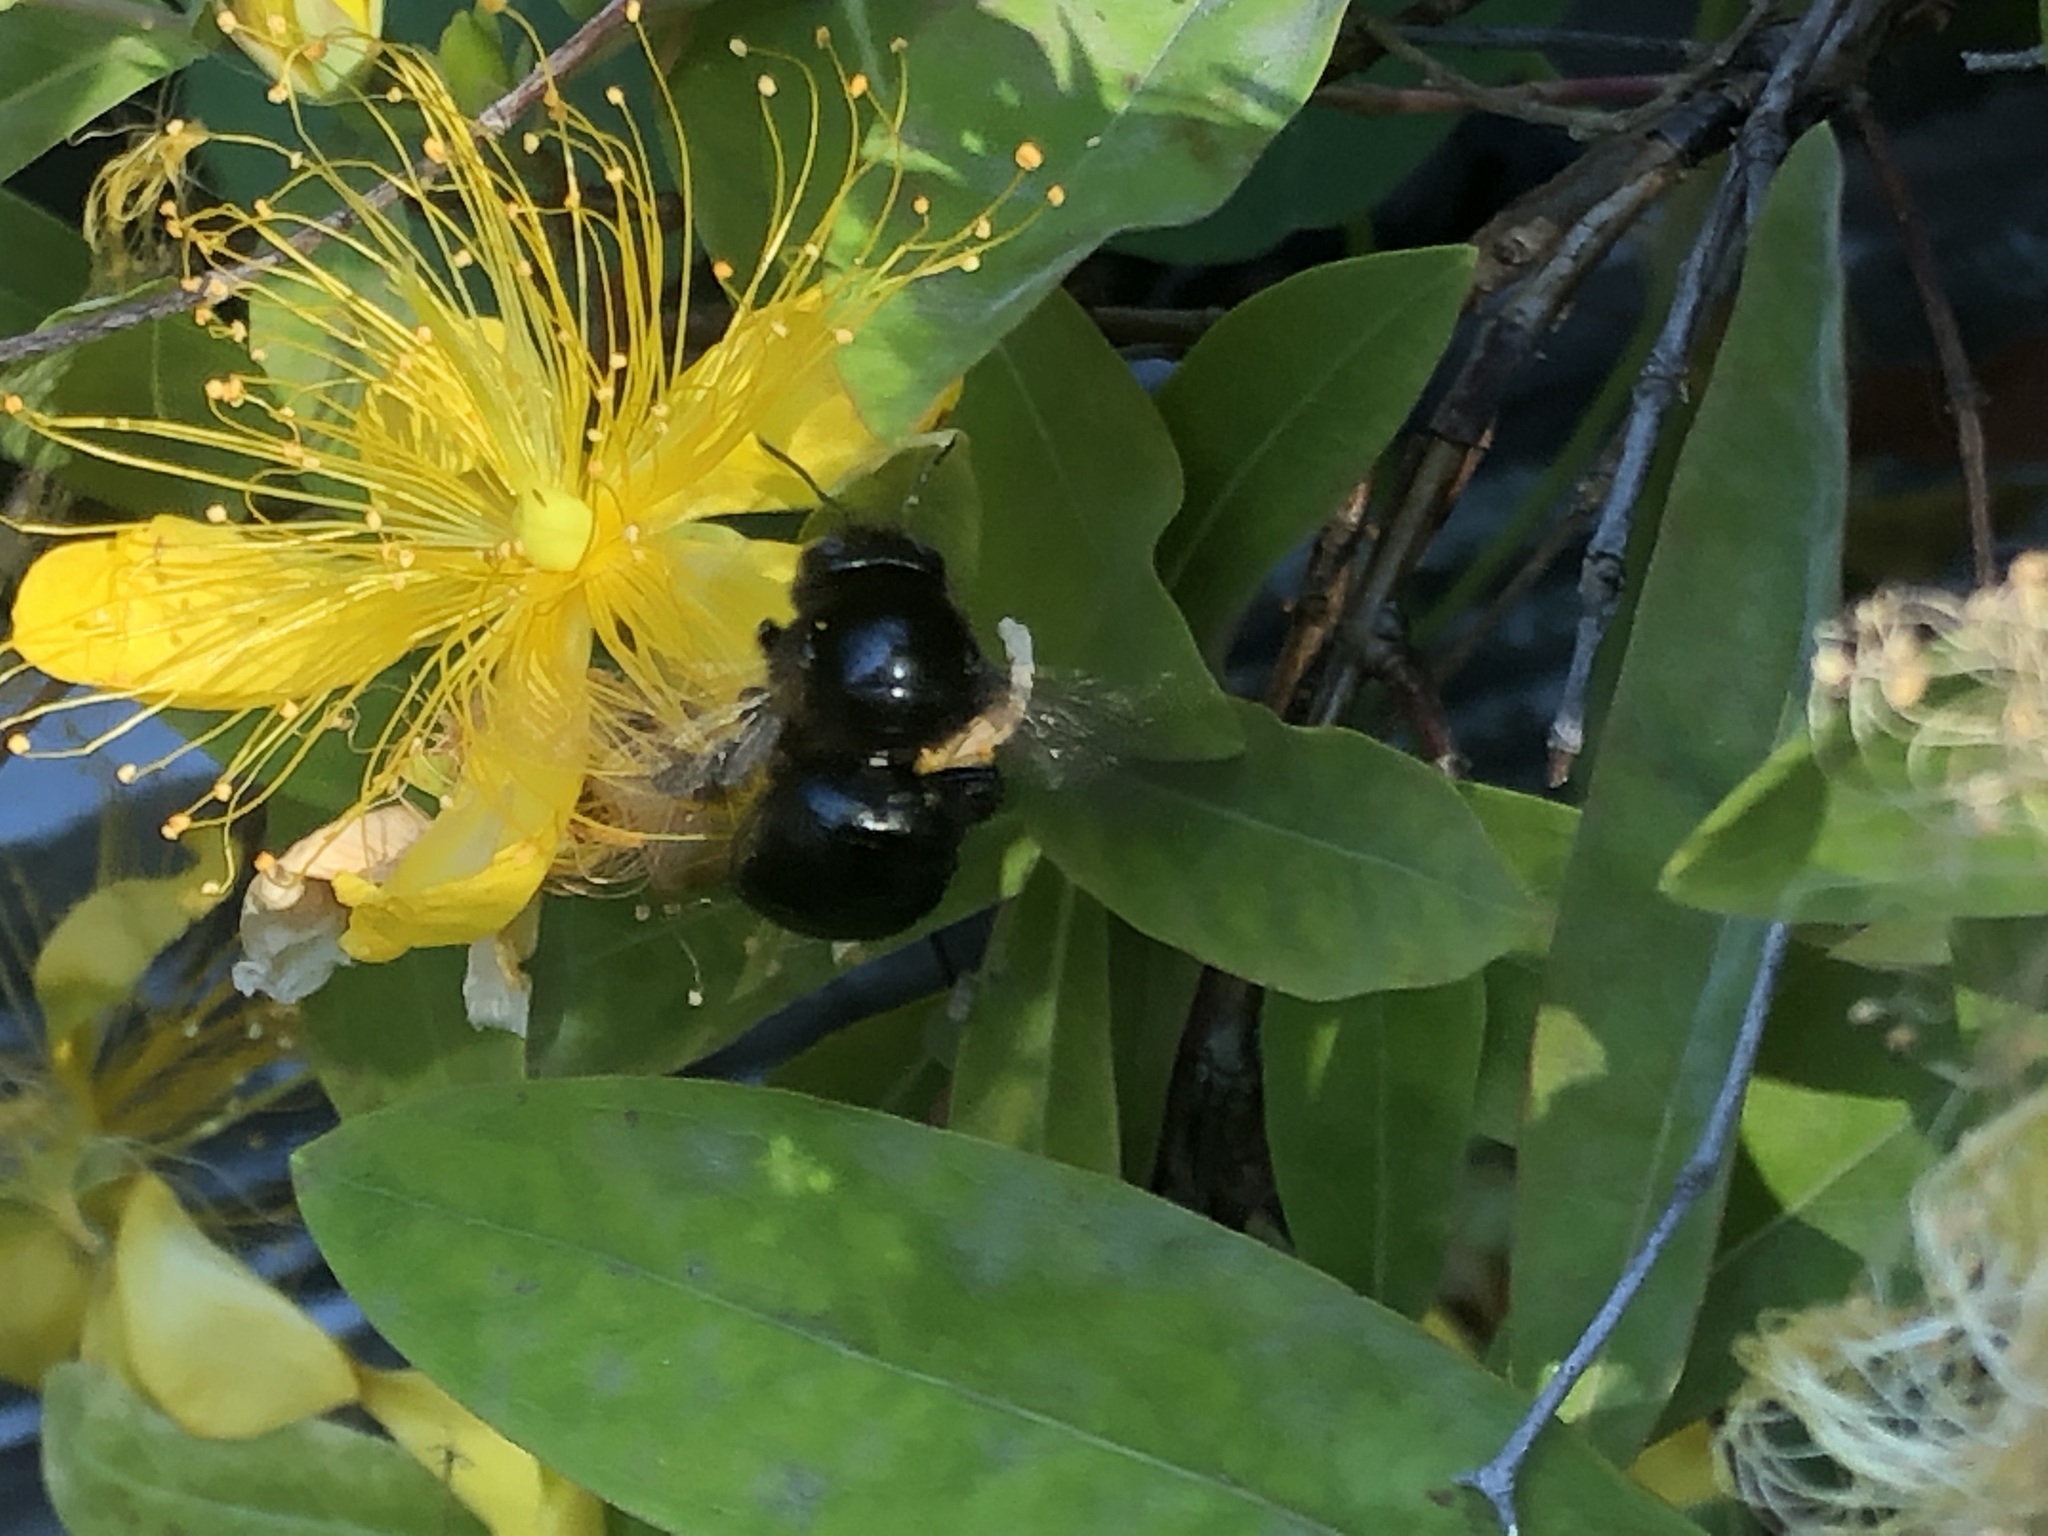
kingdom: Animalia
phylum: Arthropoda
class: Insecta
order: Hymenoptera
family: Apidae
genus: Xylocopa
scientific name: Xylocopa tabaniformis
